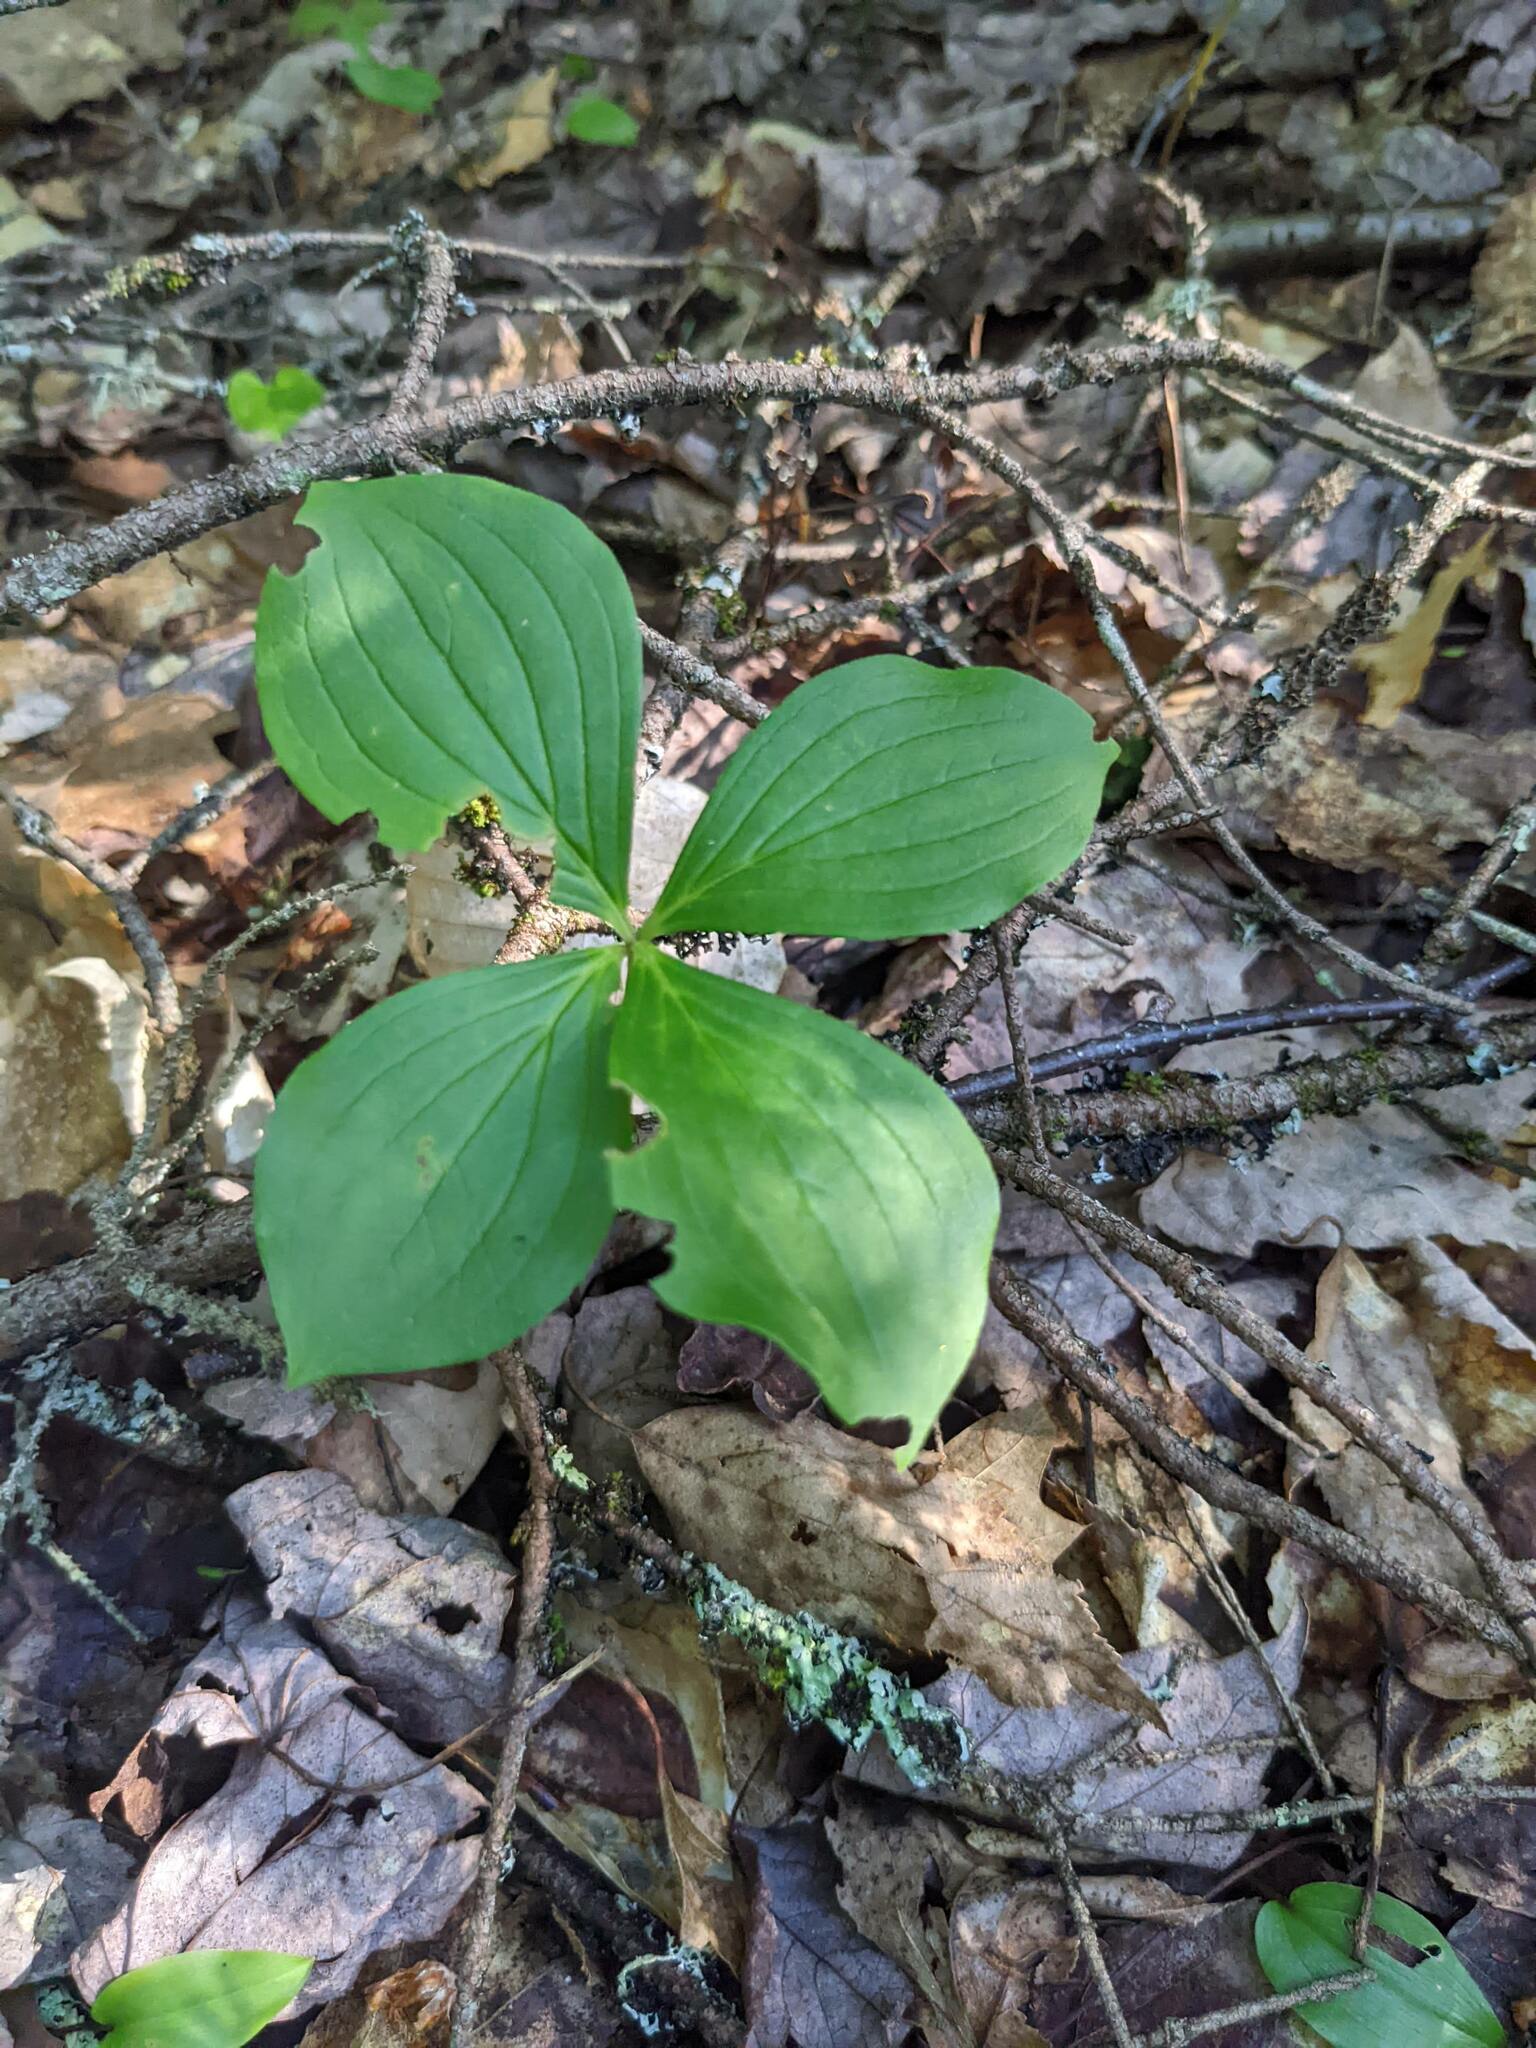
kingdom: Plantae
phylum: Tracheophyta
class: Magnoliopsida
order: Cornales
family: Cornaceae
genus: Cornus
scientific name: Cornus canadensis
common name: Creeping dogwood
